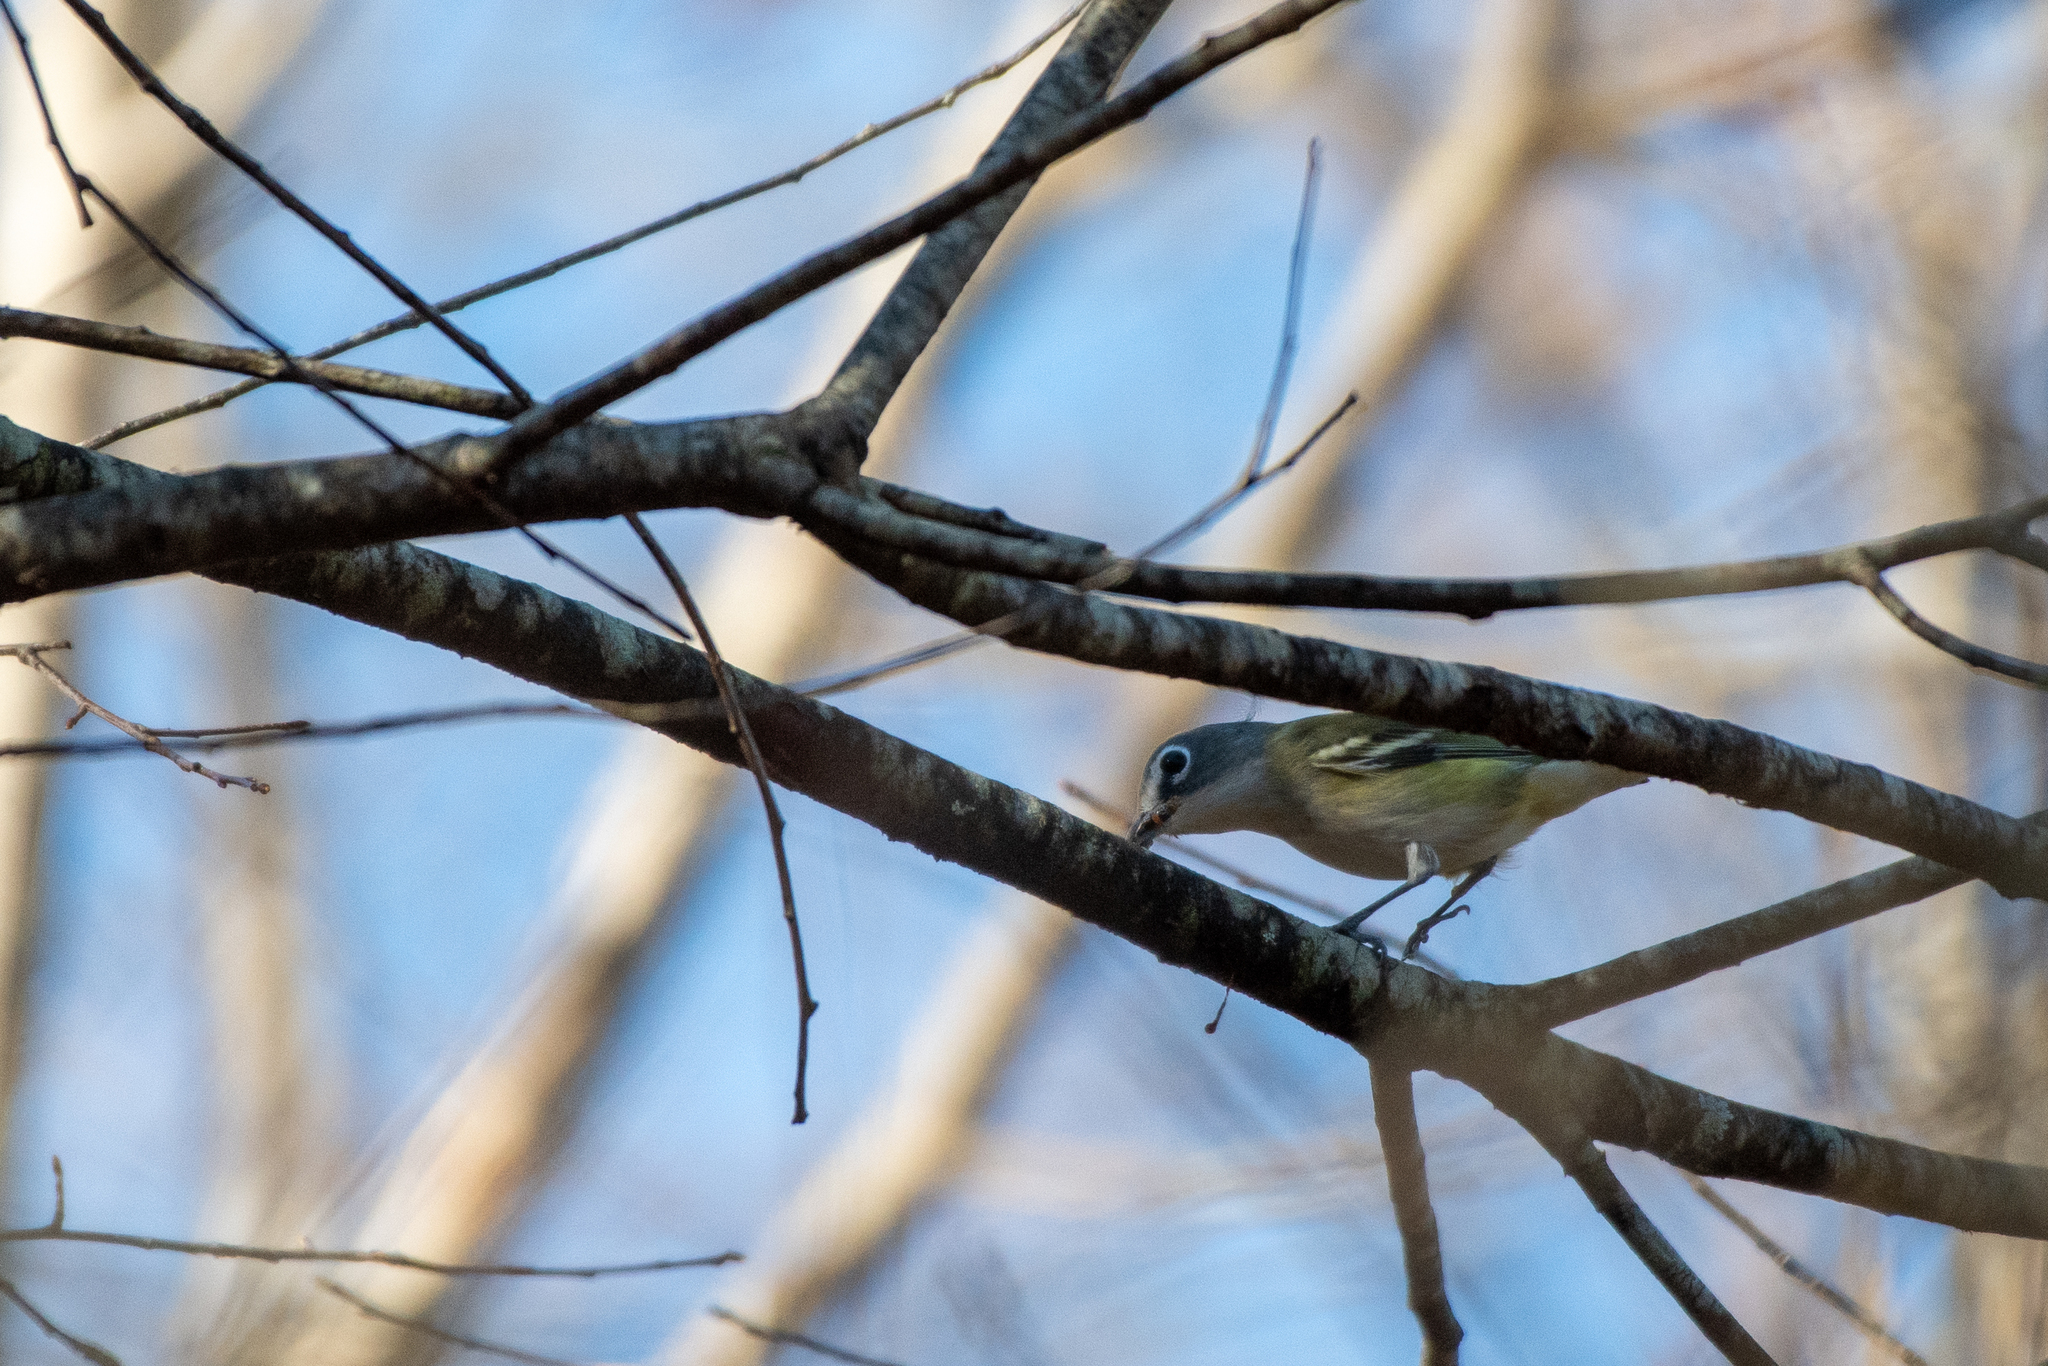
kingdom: Animalia
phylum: Chordata
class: Aves
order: Passeriformes
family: Vireonidae
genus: Vireo
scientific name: Vireo solitarius
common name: Blue-headed vireo
